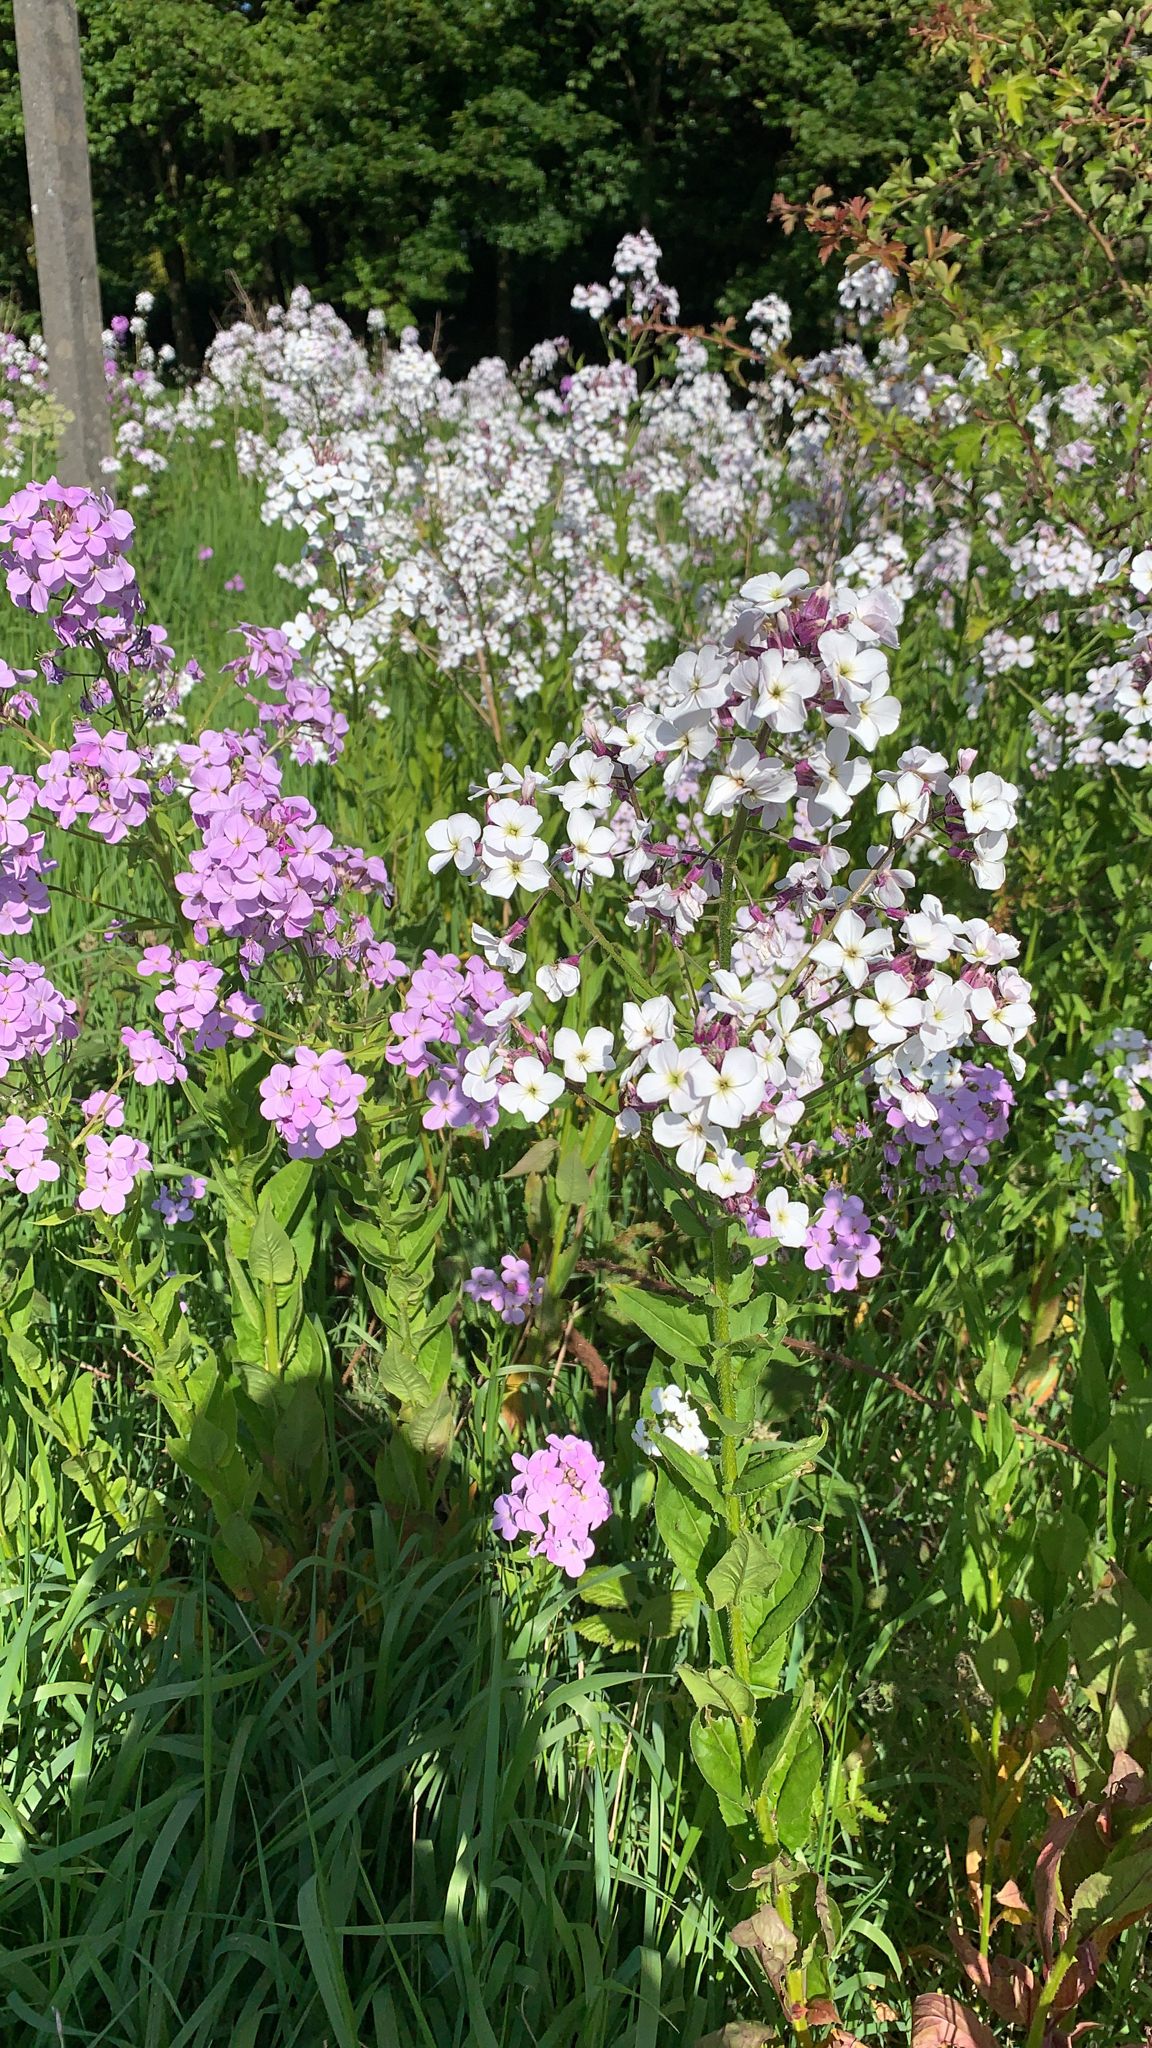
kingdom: Plantae
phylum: Tracheophyta
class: Magnoliopsida
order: Brassicales
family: Brassicaceae
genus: Hesperis
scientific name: Hesperis matronalis
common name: Dame's-violet
